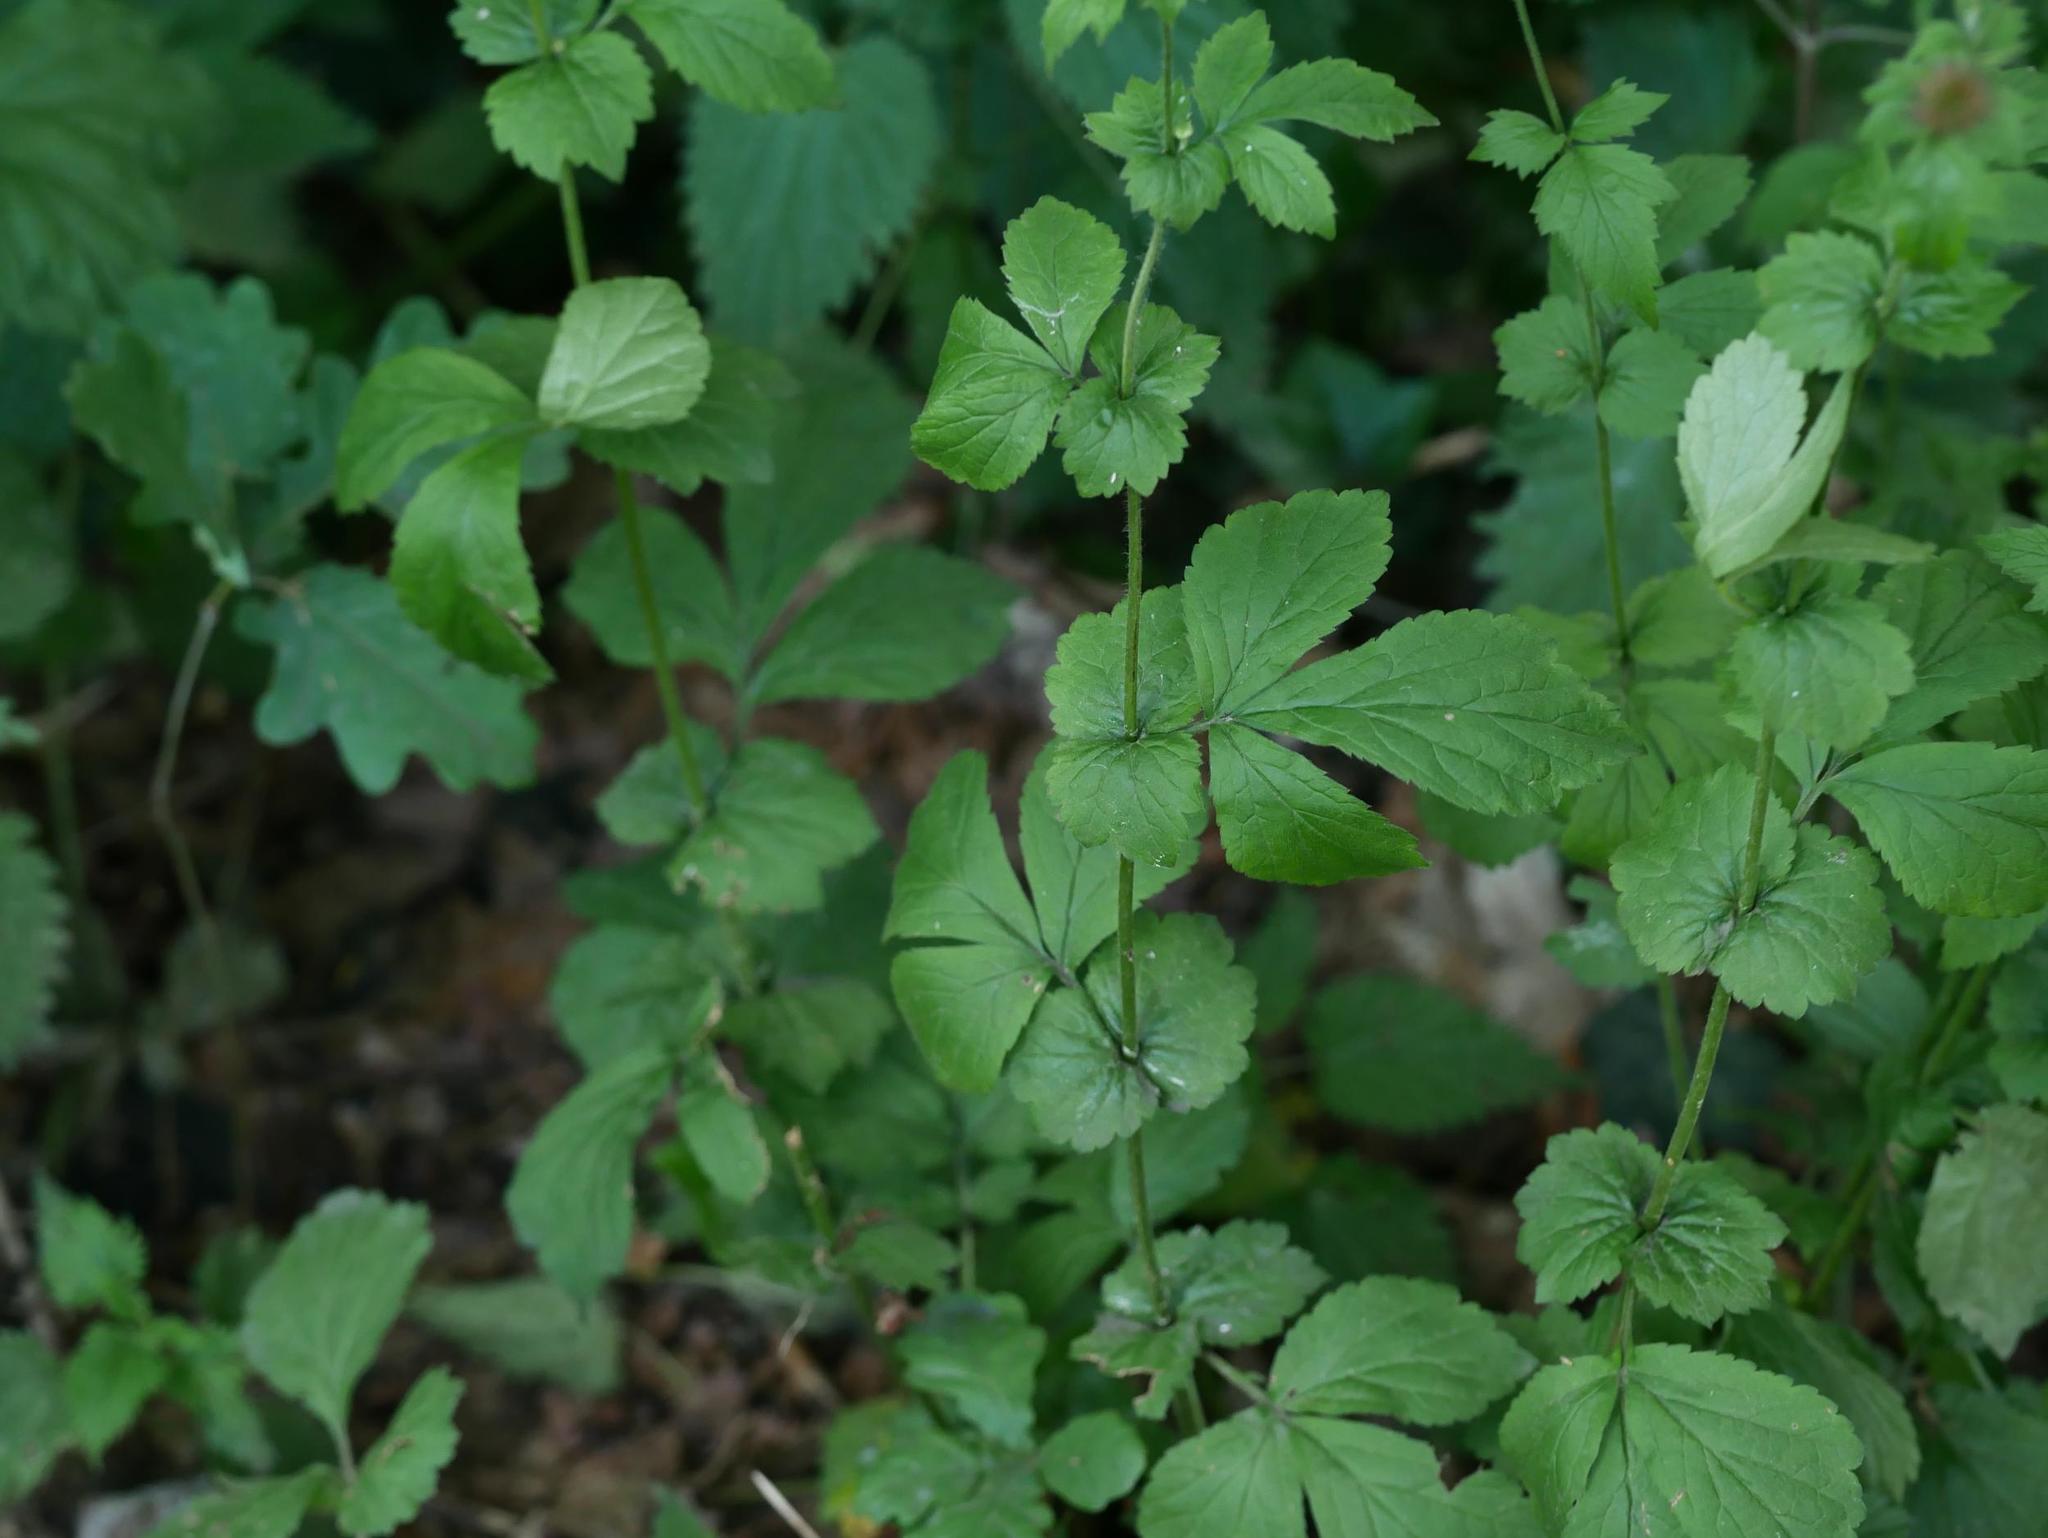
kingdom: Plantae
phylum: Tracheophyta
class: Magnoliopsida
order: Rosales
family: Rosaceae
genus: Geum
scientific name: Geum urbanum
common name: Wood avens
